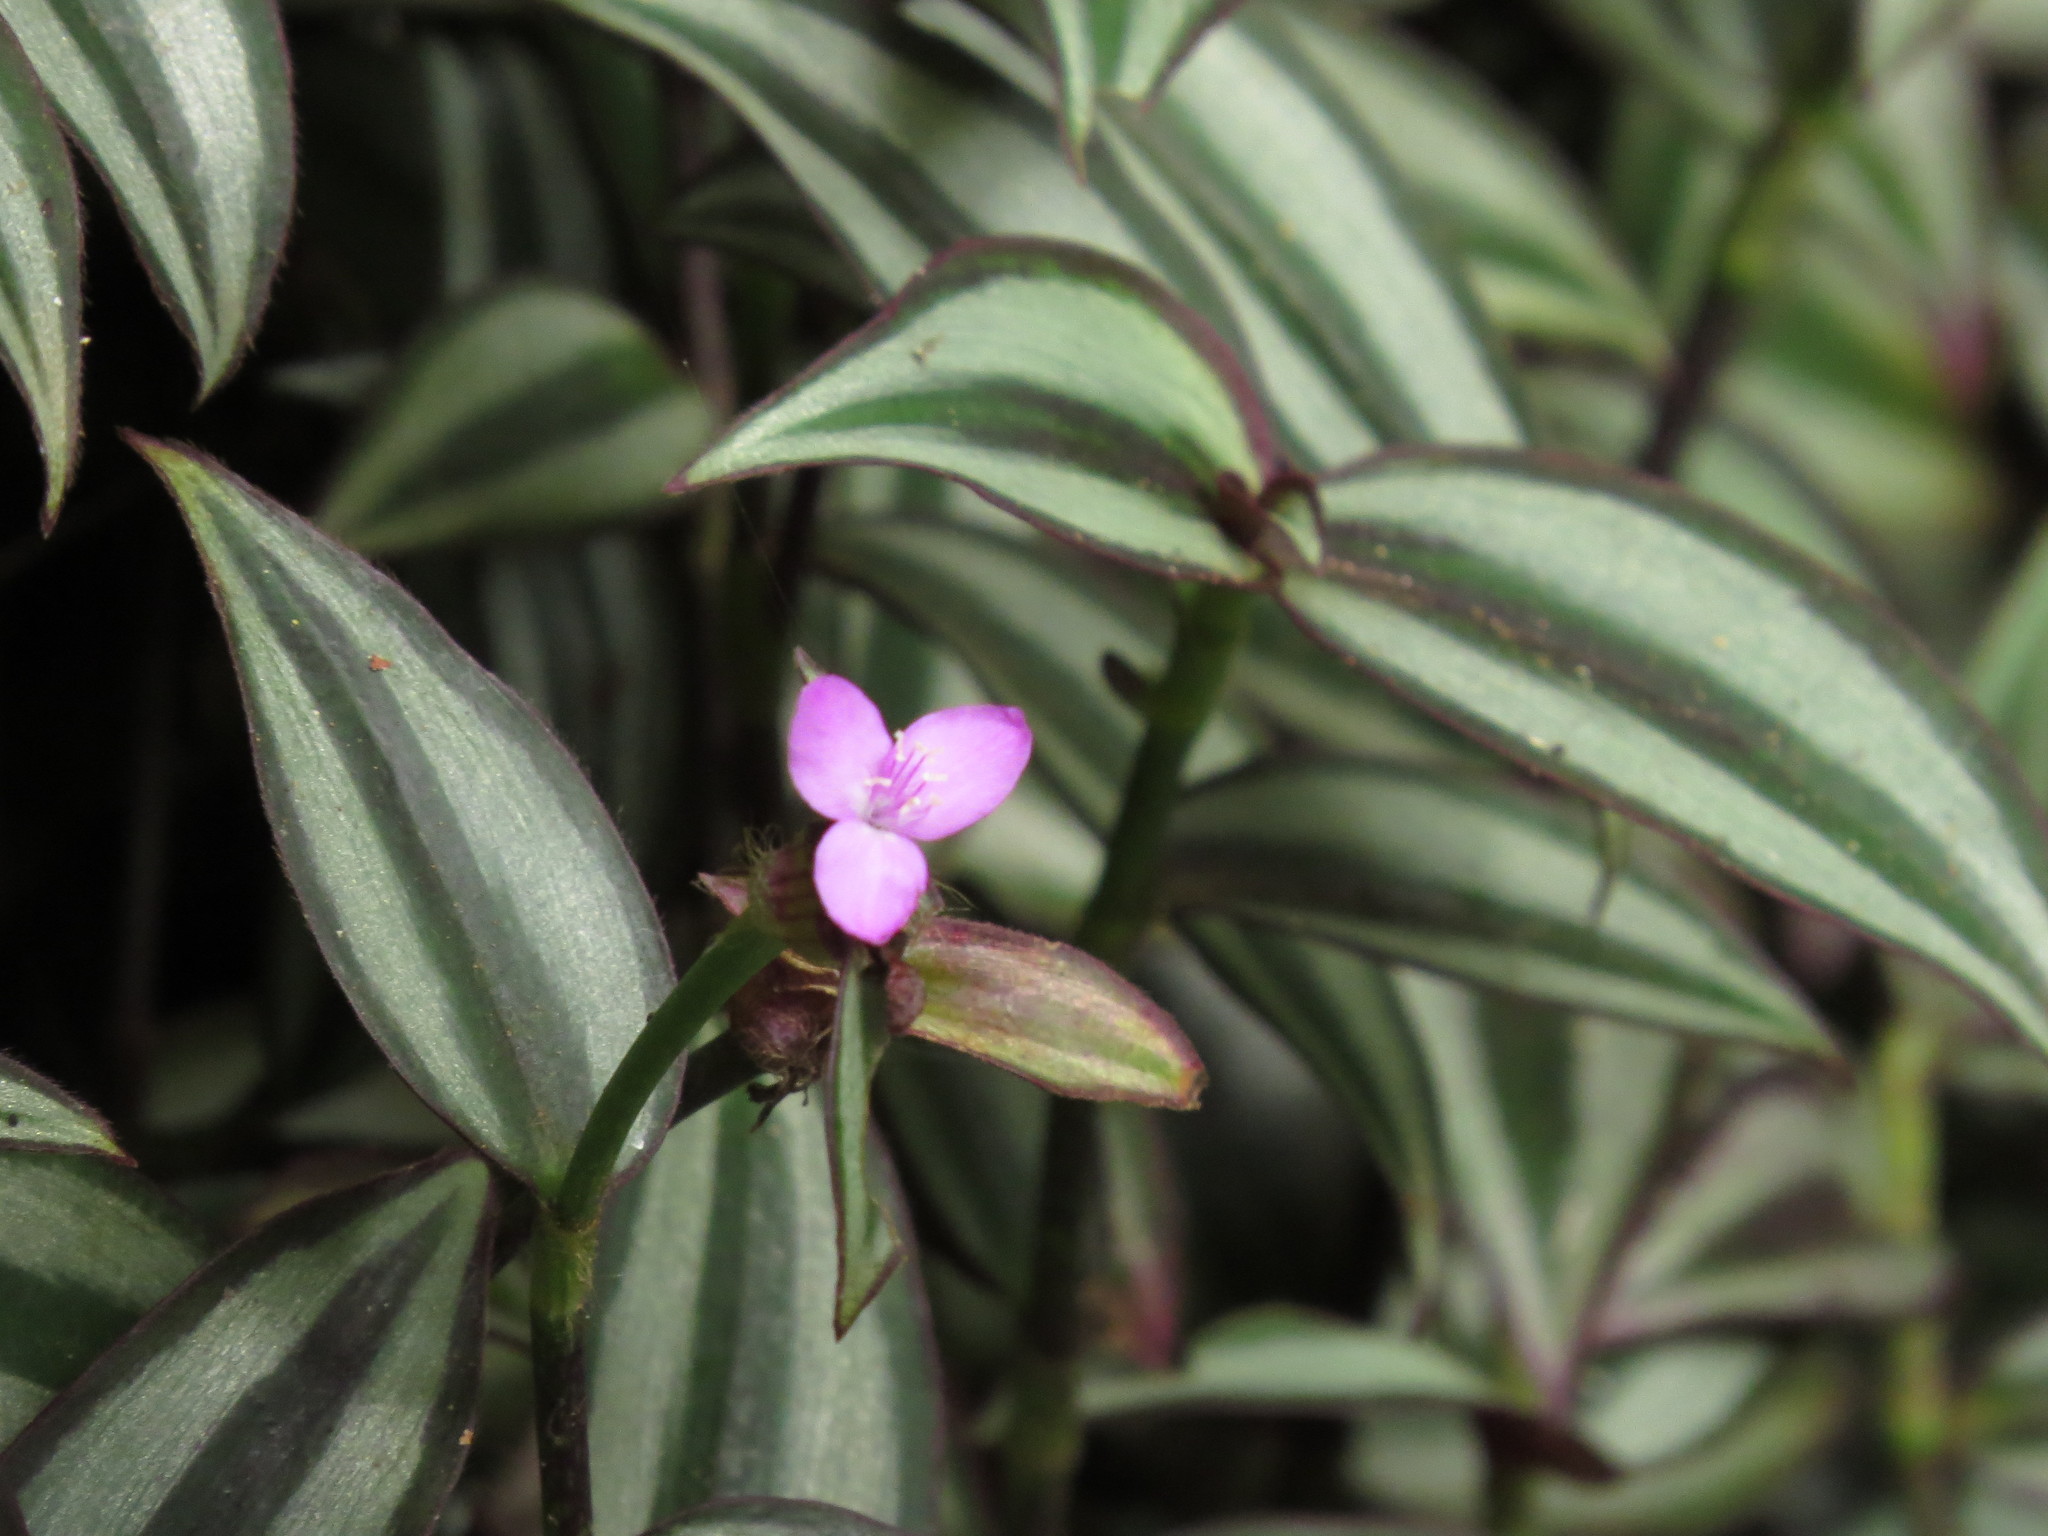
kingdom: Plantae
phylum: Tracheophyta
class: Liliopsida
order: Commelinales
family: Commelinaceae
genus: Tradescantia
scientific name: Tradescantia zebrina
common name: Inchplant
